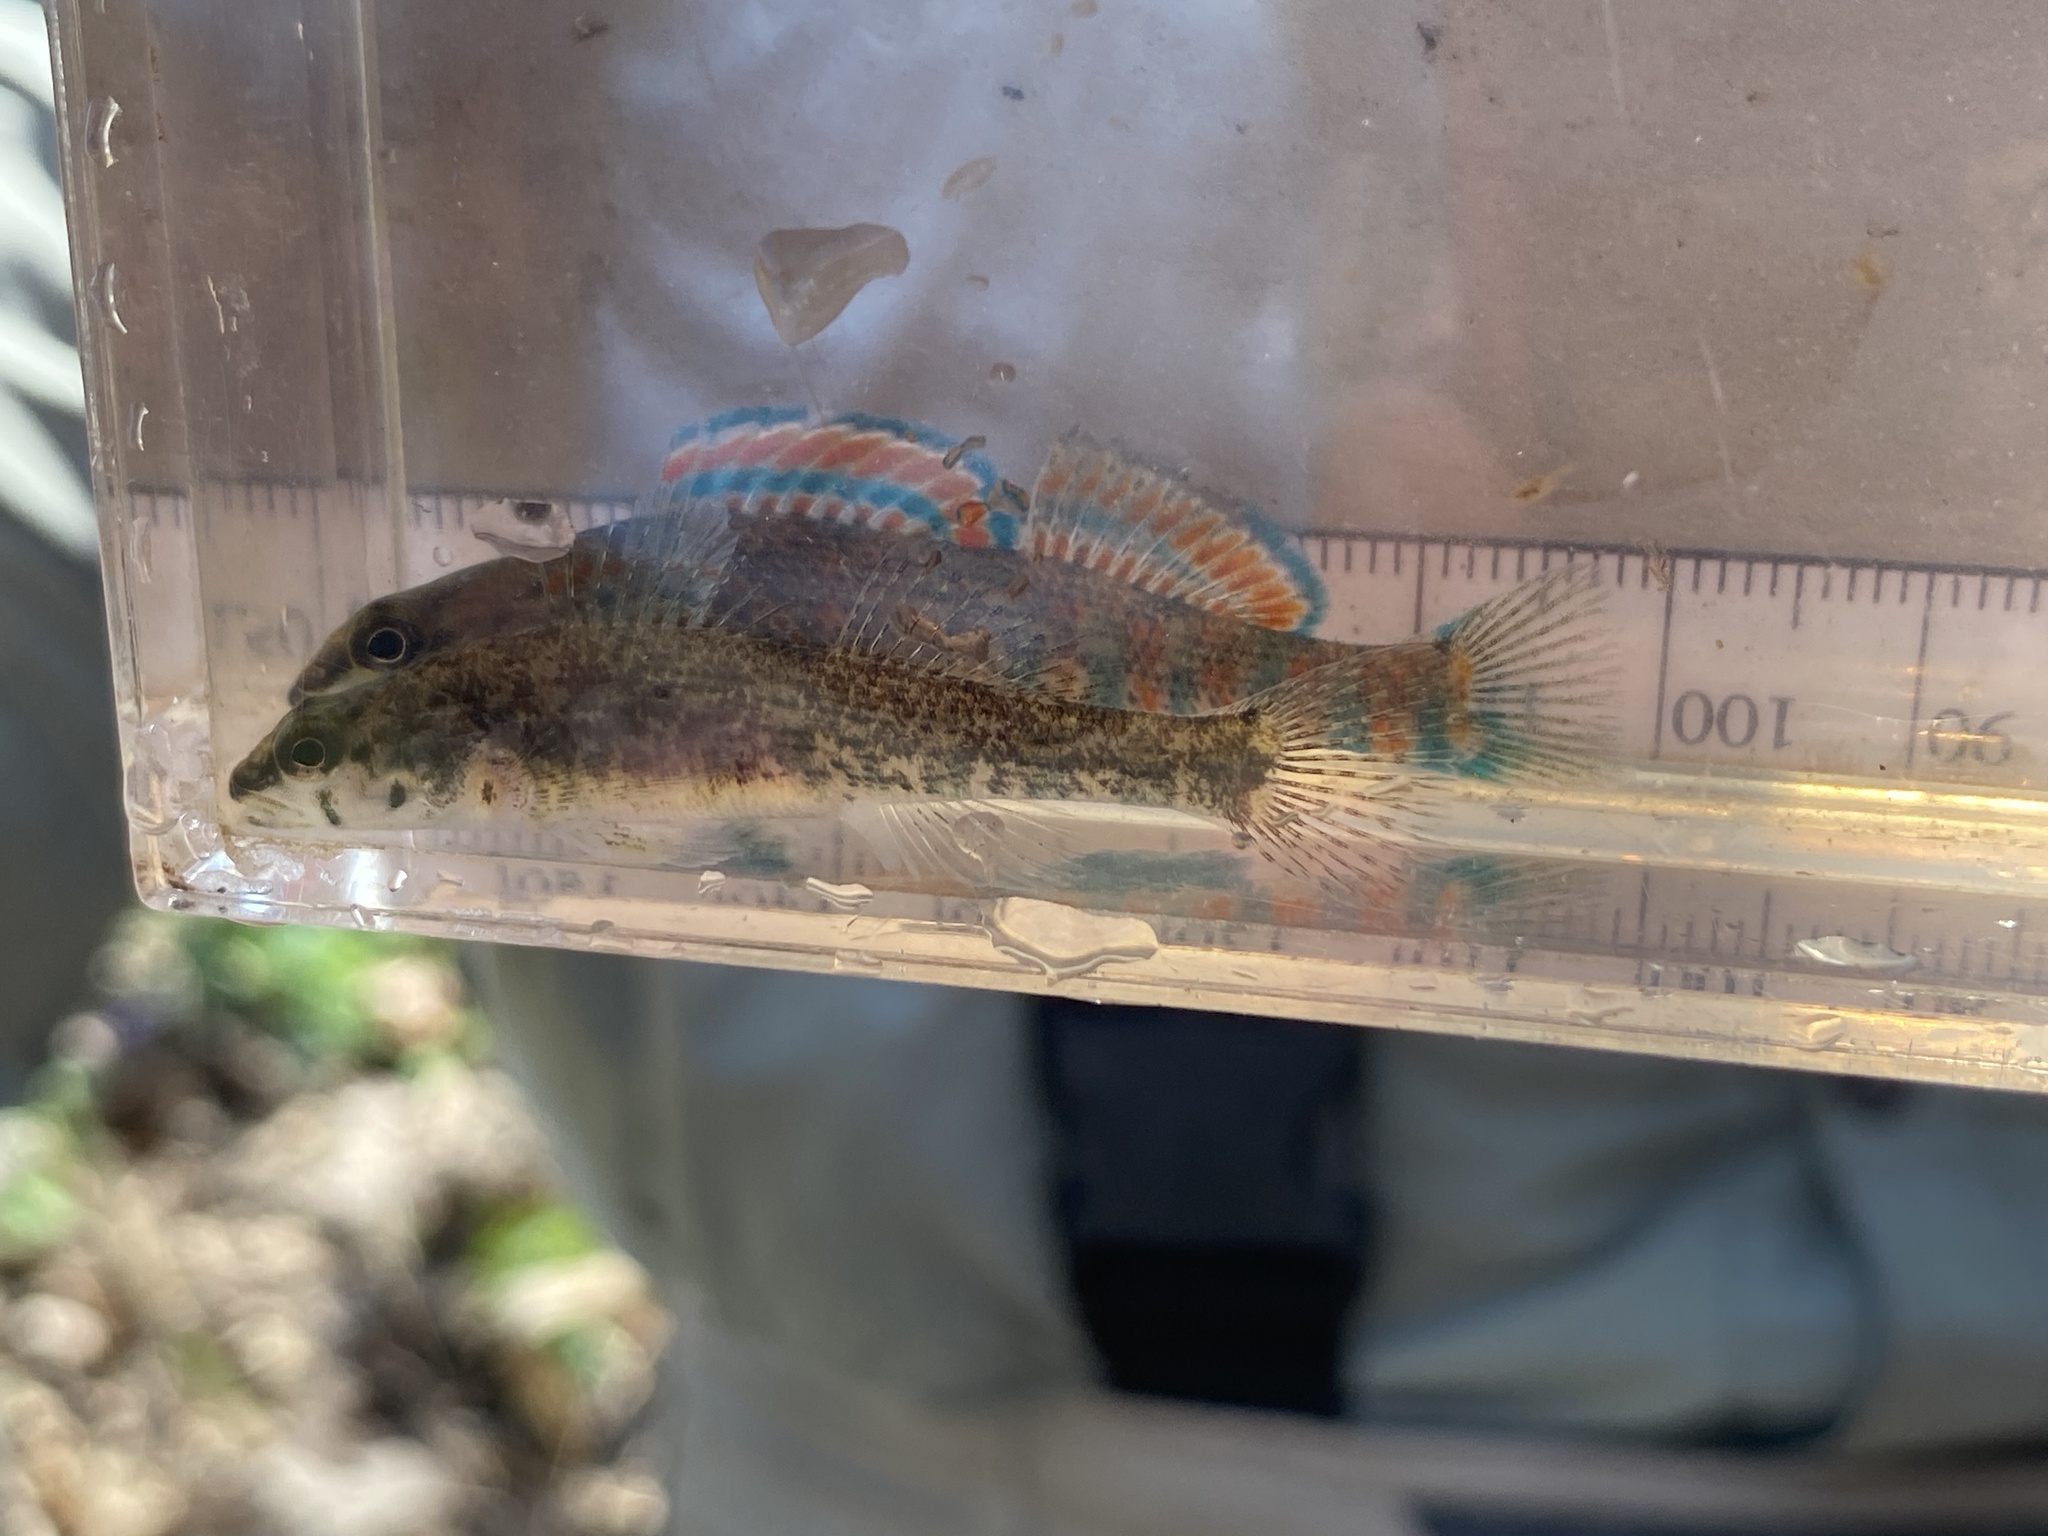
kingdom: Animalia
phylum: Chordata
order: Perciformes
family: Percidae
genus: Etheostoma
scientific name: Etheostoma collettei
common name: Creole darter
